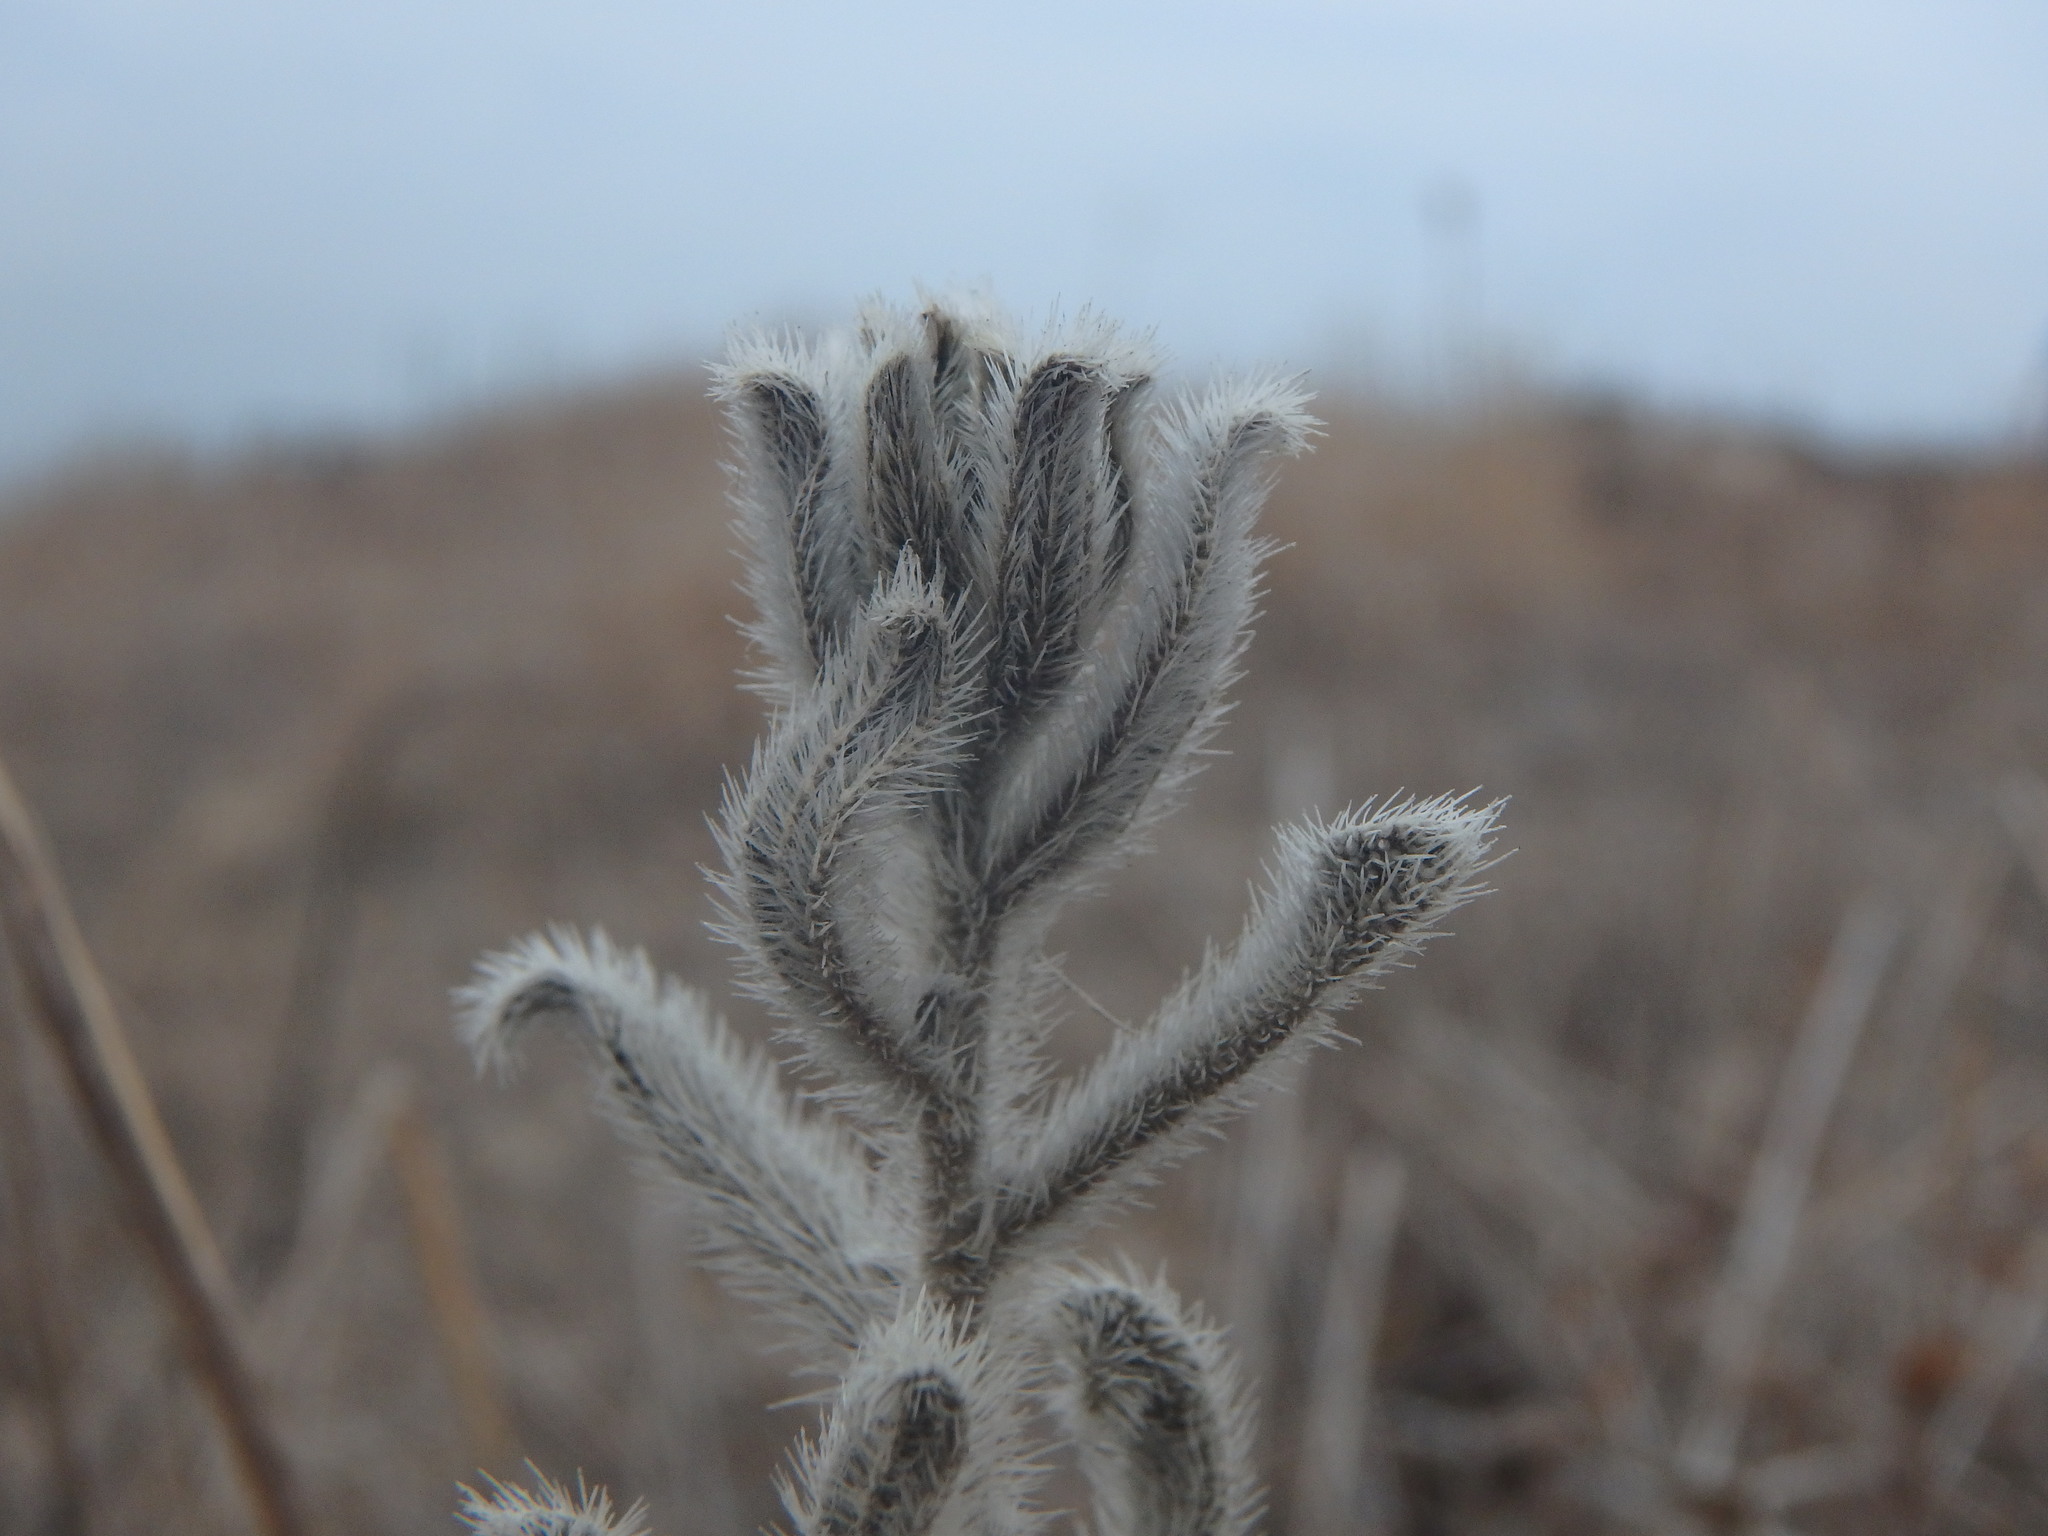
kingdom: Plantae
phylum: Tracheophyta
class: Magnoliopsida
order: Boraginales
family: Boraginaceae
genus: Echium
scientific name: Echium angustifolium
